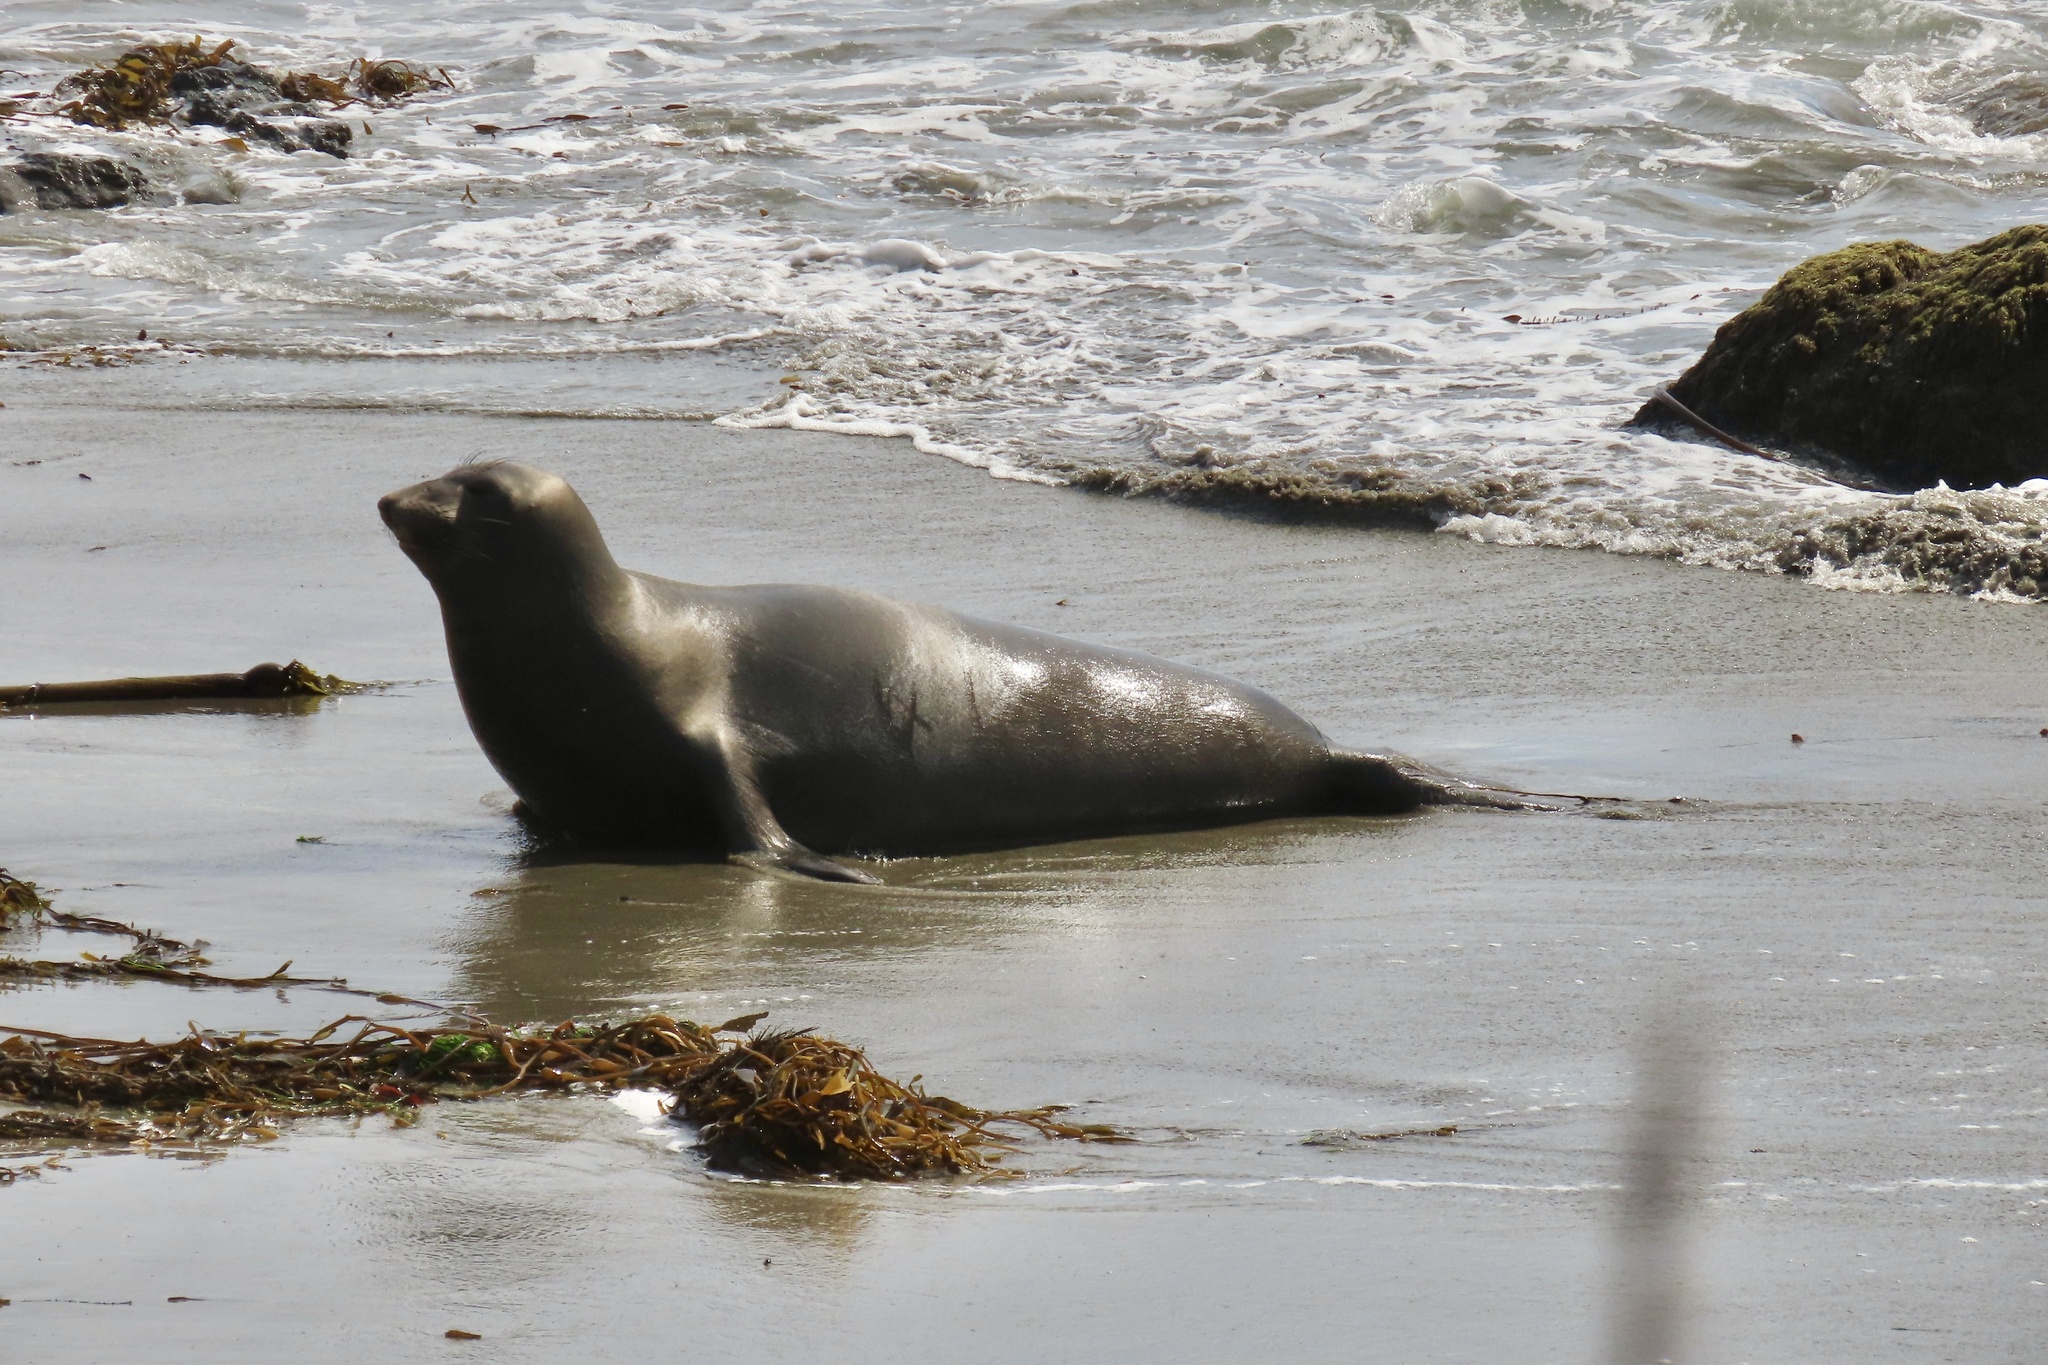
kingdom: Animalia
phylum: Chordata
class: Mammalia
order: Carnivora
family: Phocidae
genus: Mirounga
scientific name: Mirounga angustirostris
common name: Northern elephant seal
